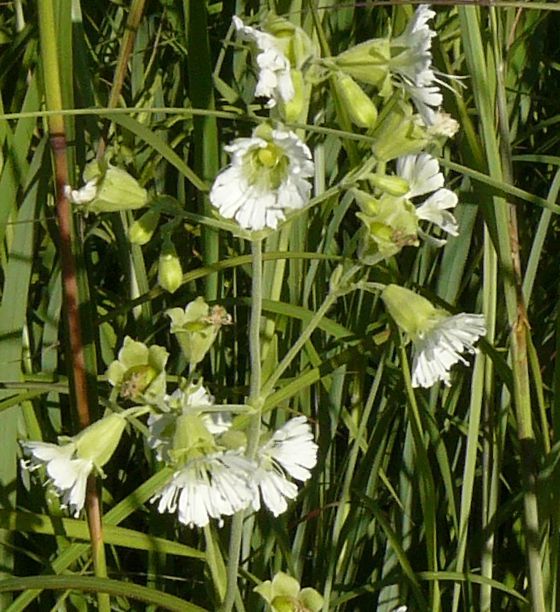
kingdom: Plantae
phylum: Tracheophyta
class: Magnoliopsida
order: Caryophyllales
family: Caryophyllaceae
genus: Silene
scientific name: Silene stellata
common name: Starry campion
